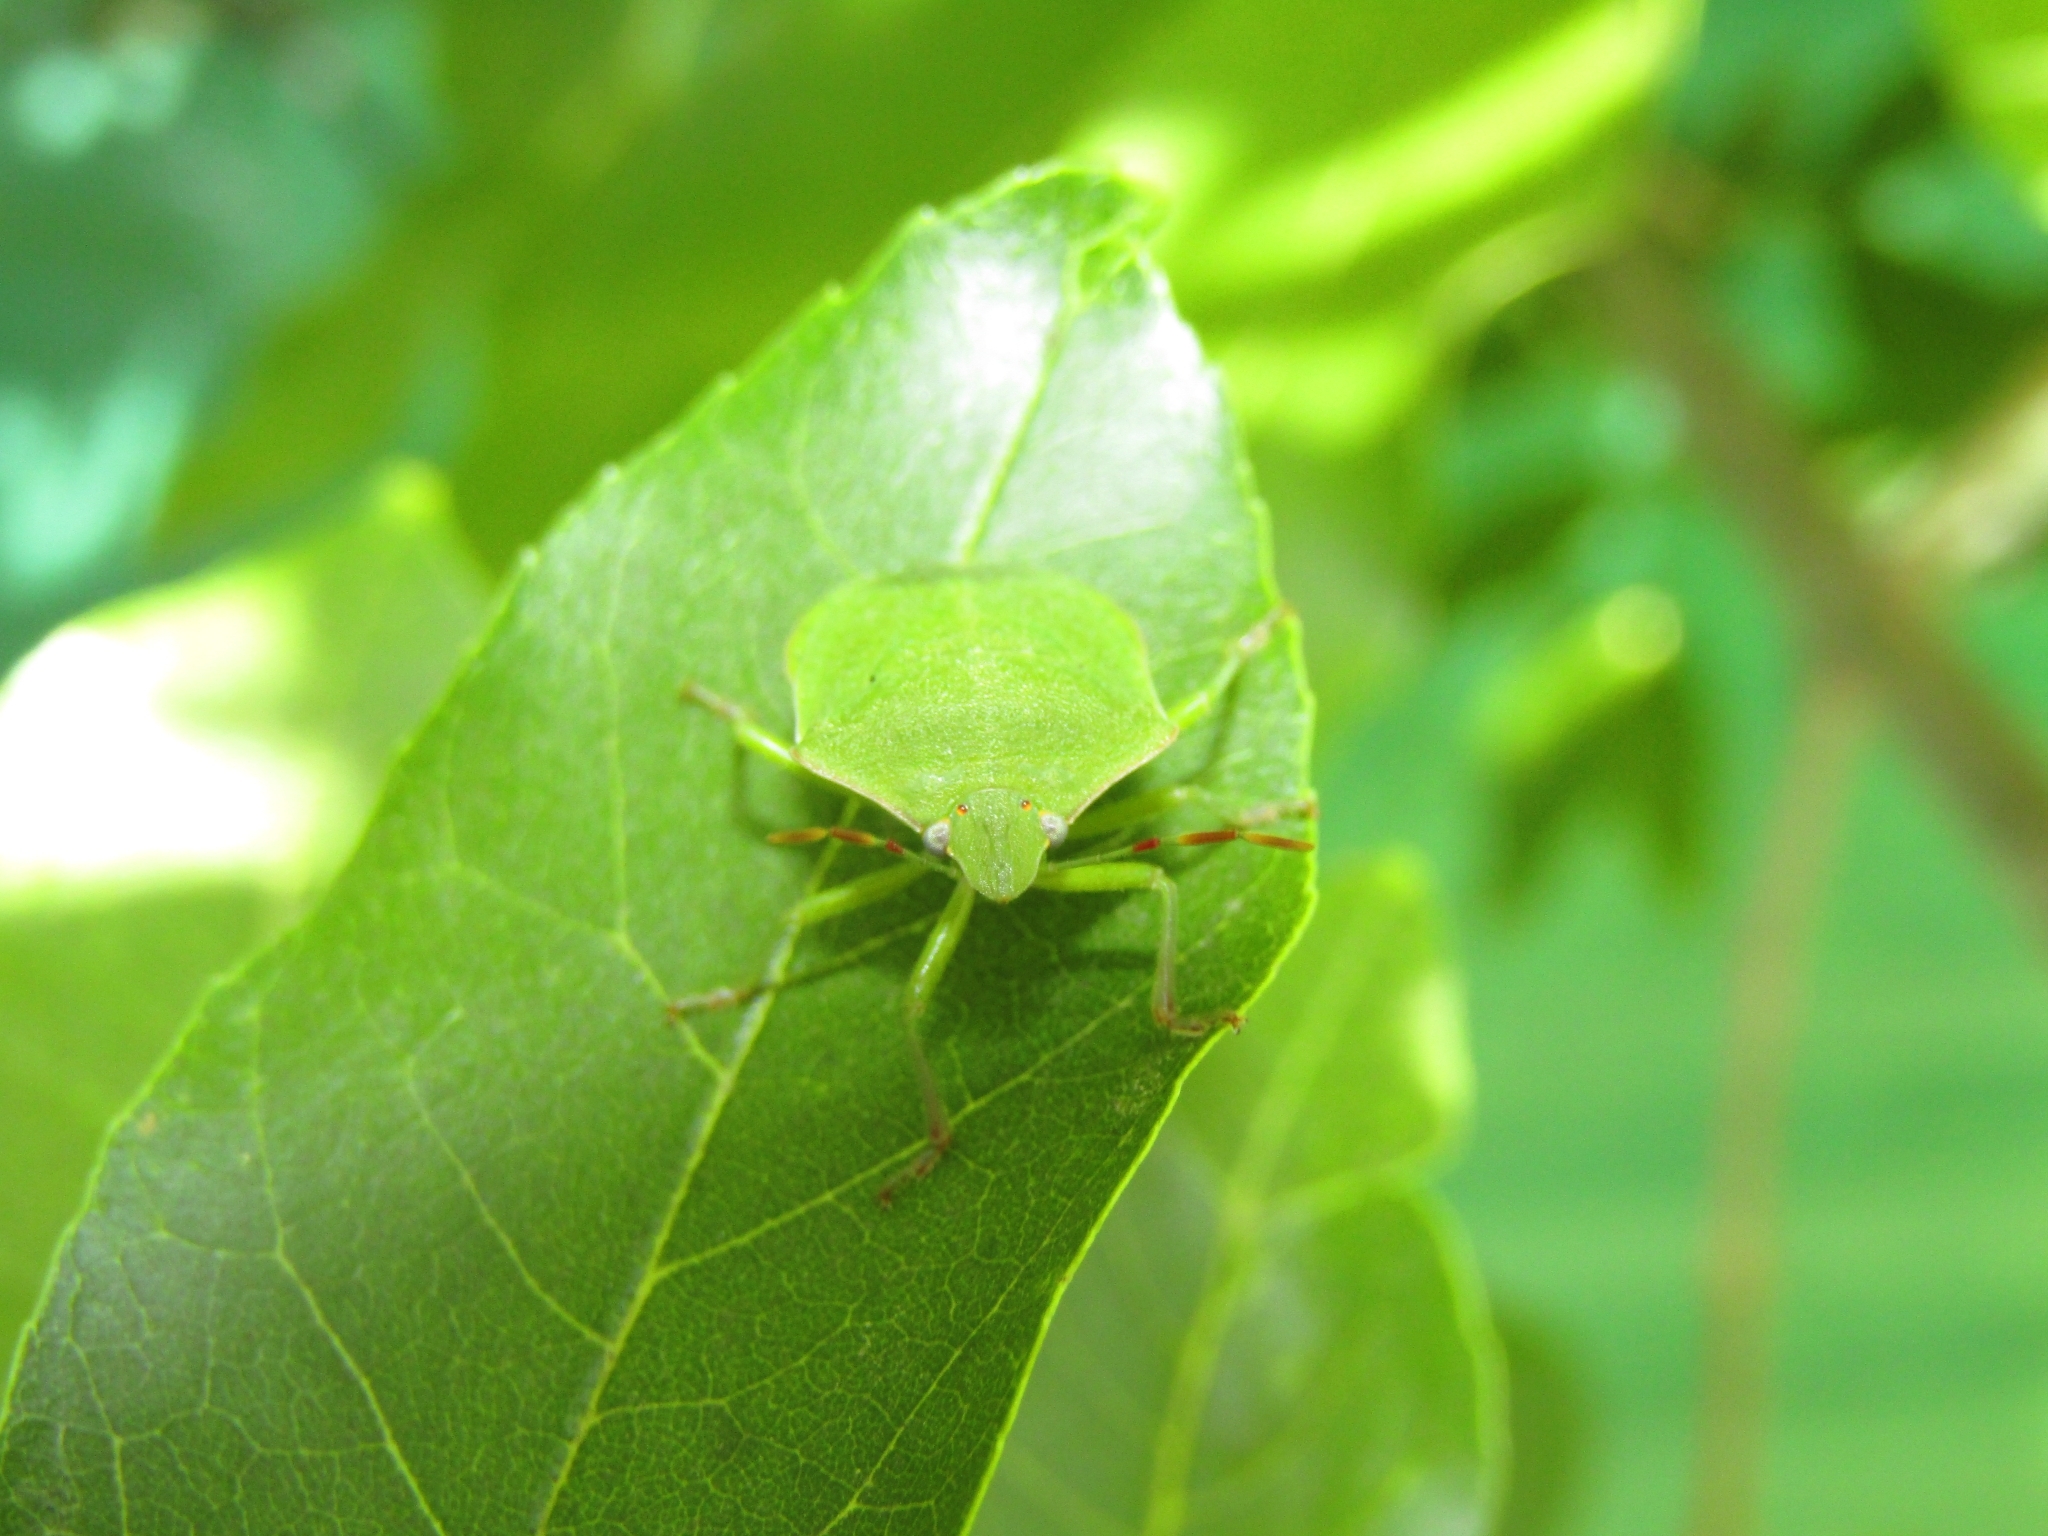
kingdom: Animalia
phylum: Arthropoda
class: Insecta
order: Hemiptera
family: Pentatomidae
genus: Nezara
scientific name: Nezara viridula
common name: Southern green stink bug
